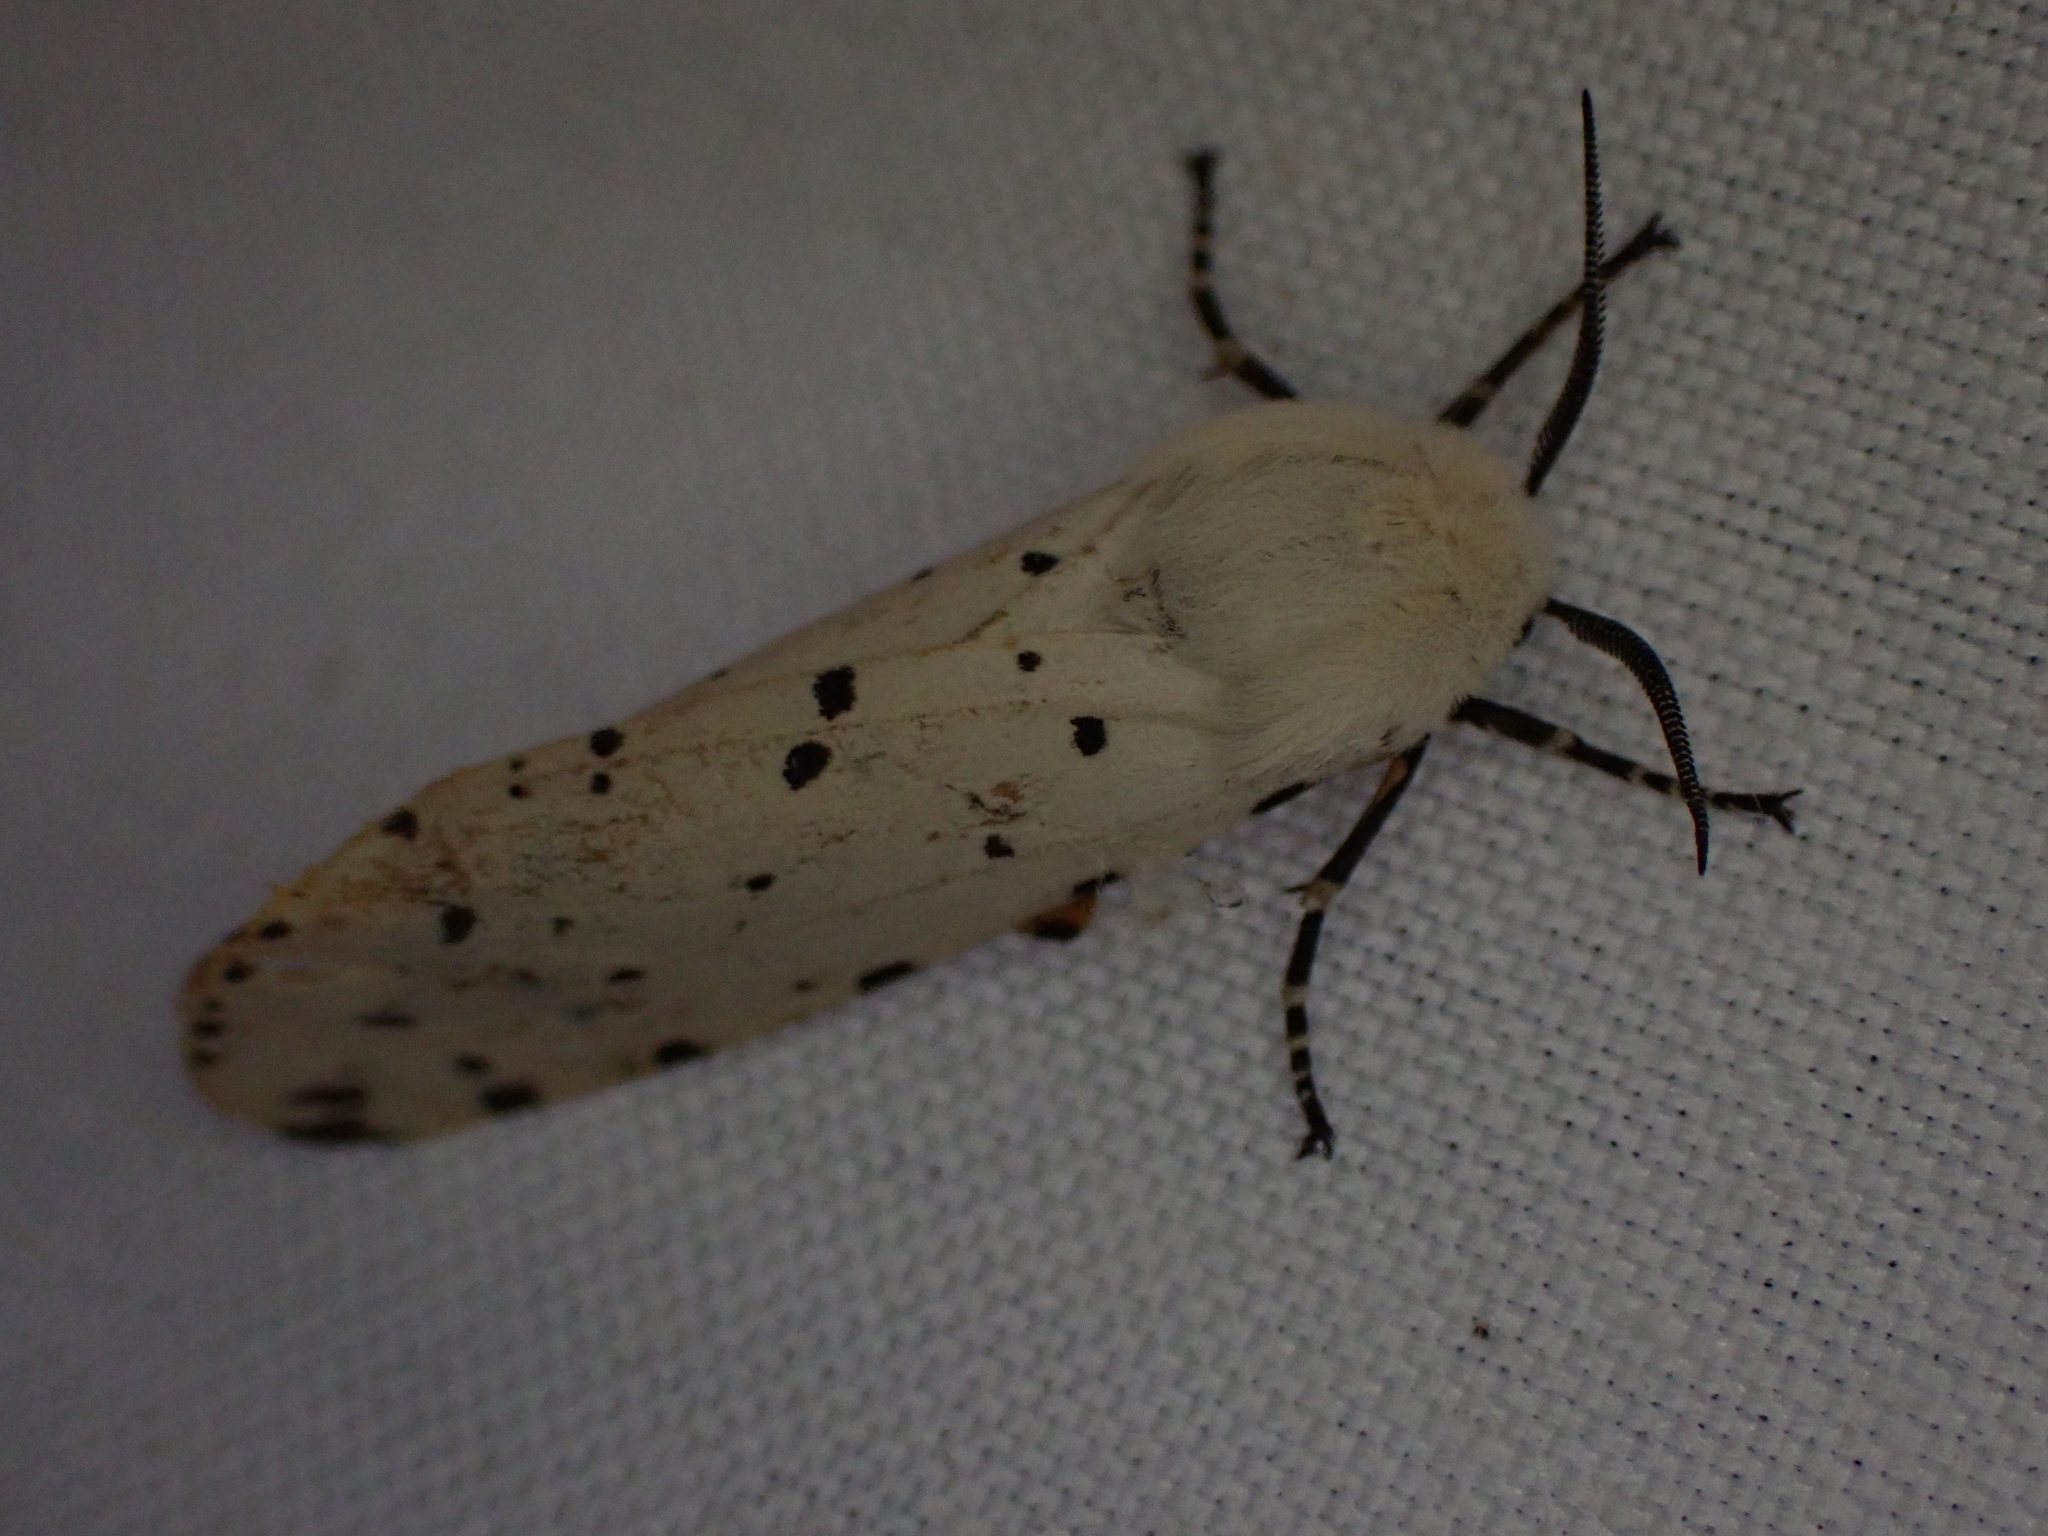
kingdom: Animalia
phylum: Arthropoda
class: Insecta
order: Lepidoptera
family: Erebidae
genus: Estigmene
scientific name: Estigmene acrea
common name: Salt marsh moth
